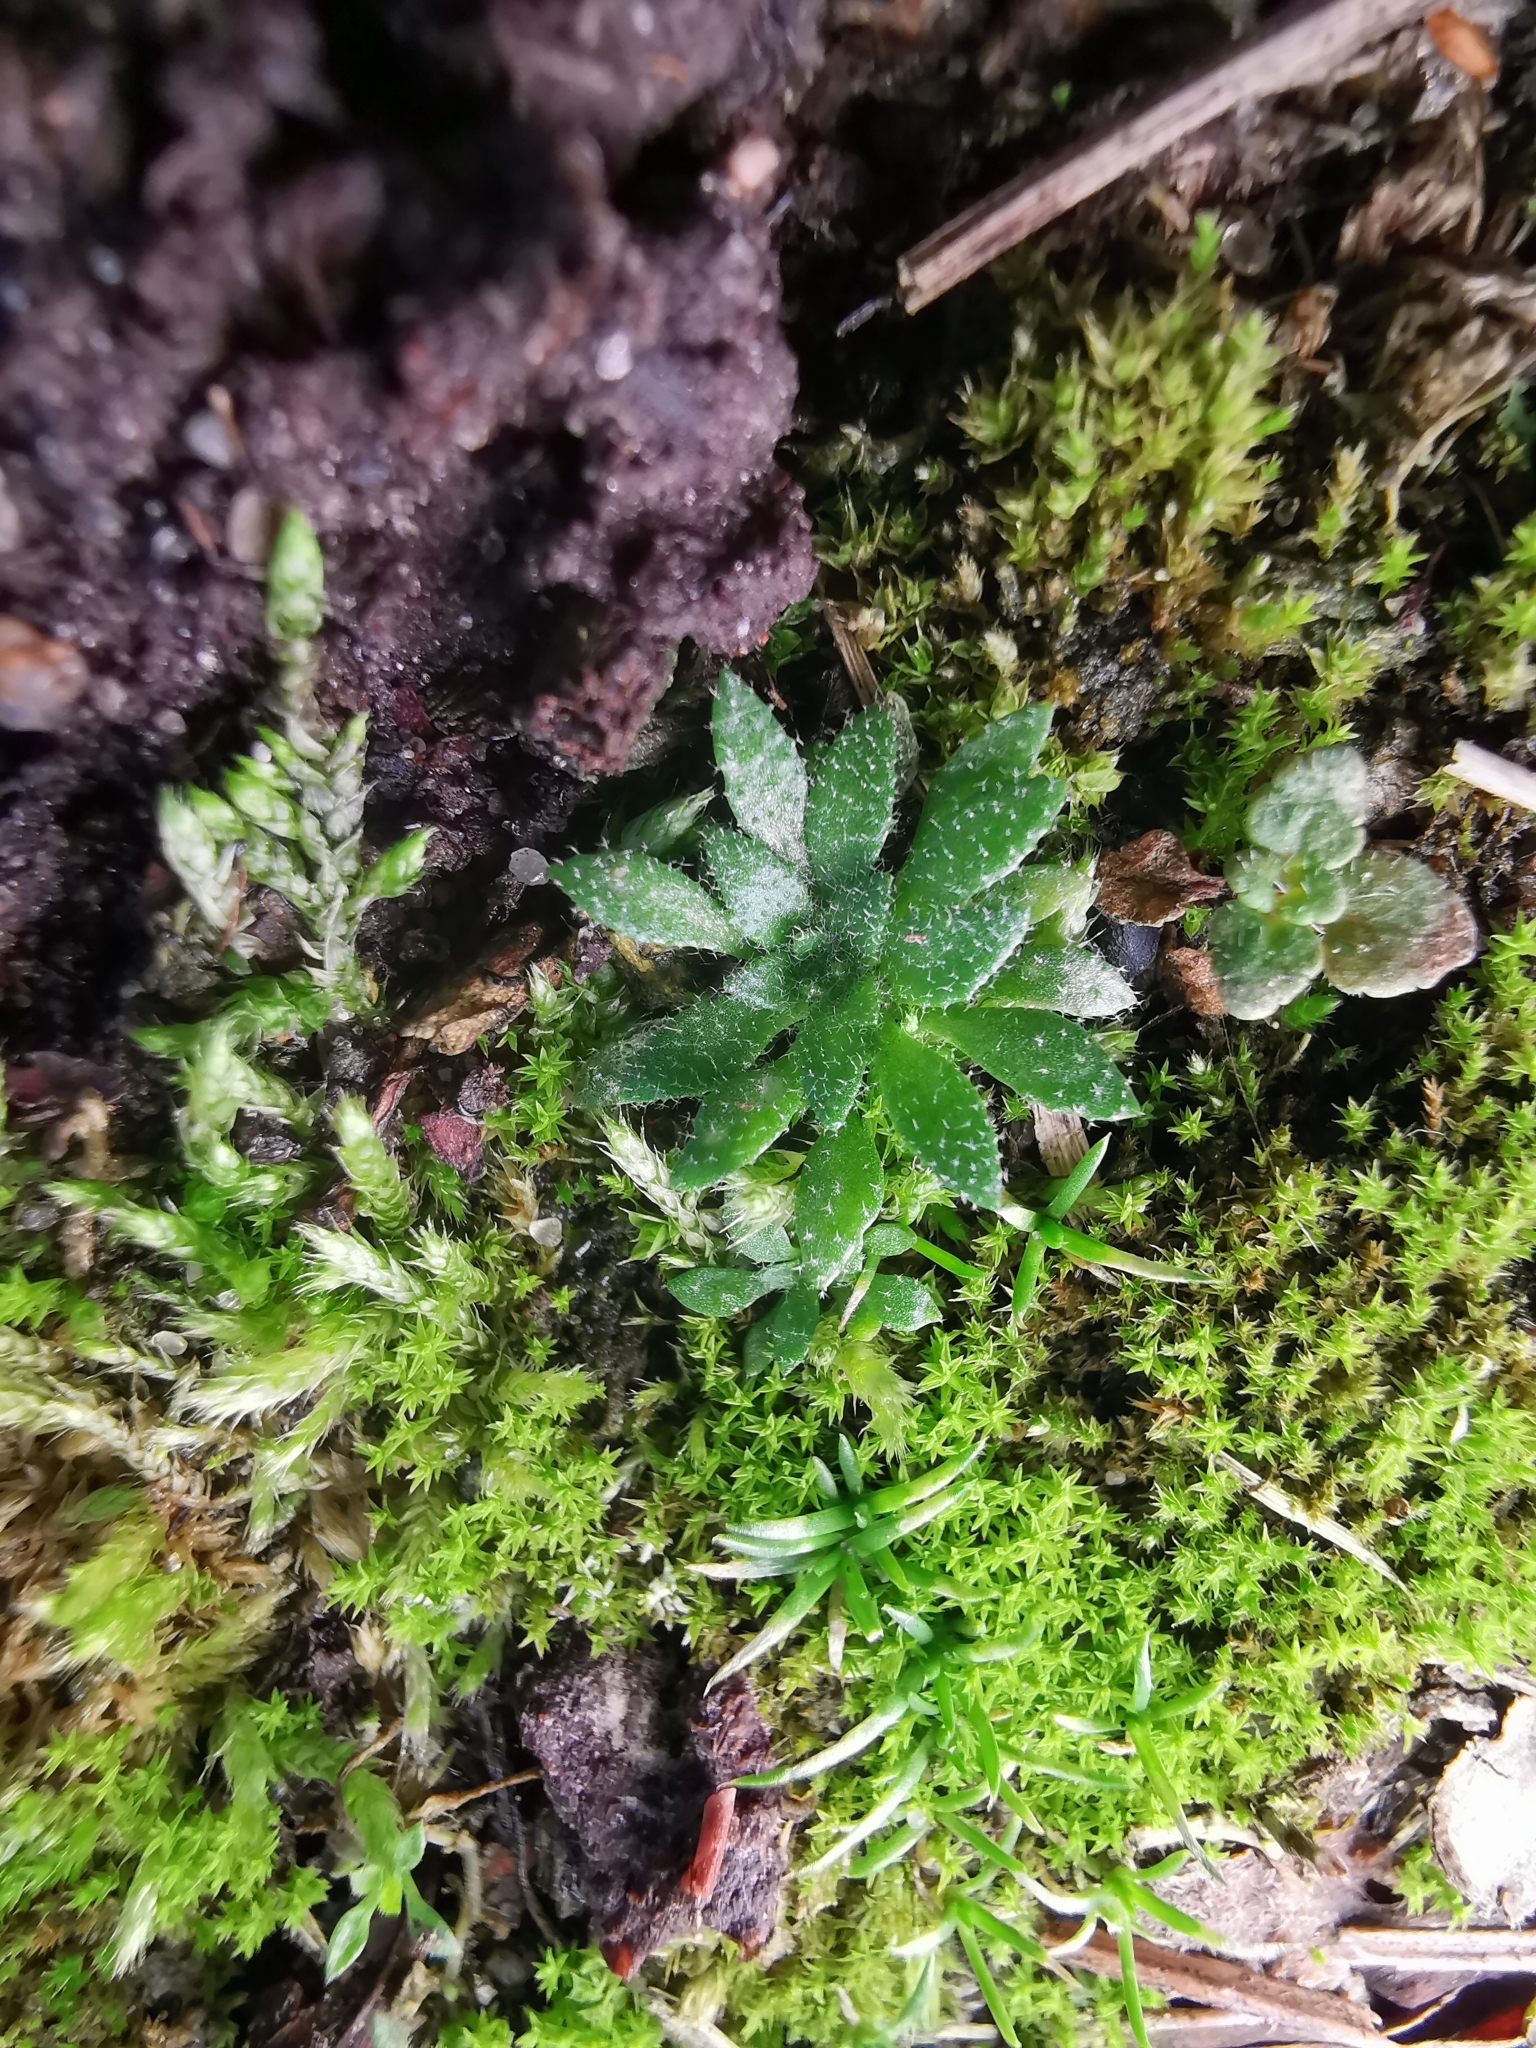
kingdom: Plantae
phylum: Tracheophyta
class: Magnoliopsida
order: Brassicales
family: Brassicaceae
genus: Draba
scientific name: Draba verna
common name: Spring draba
